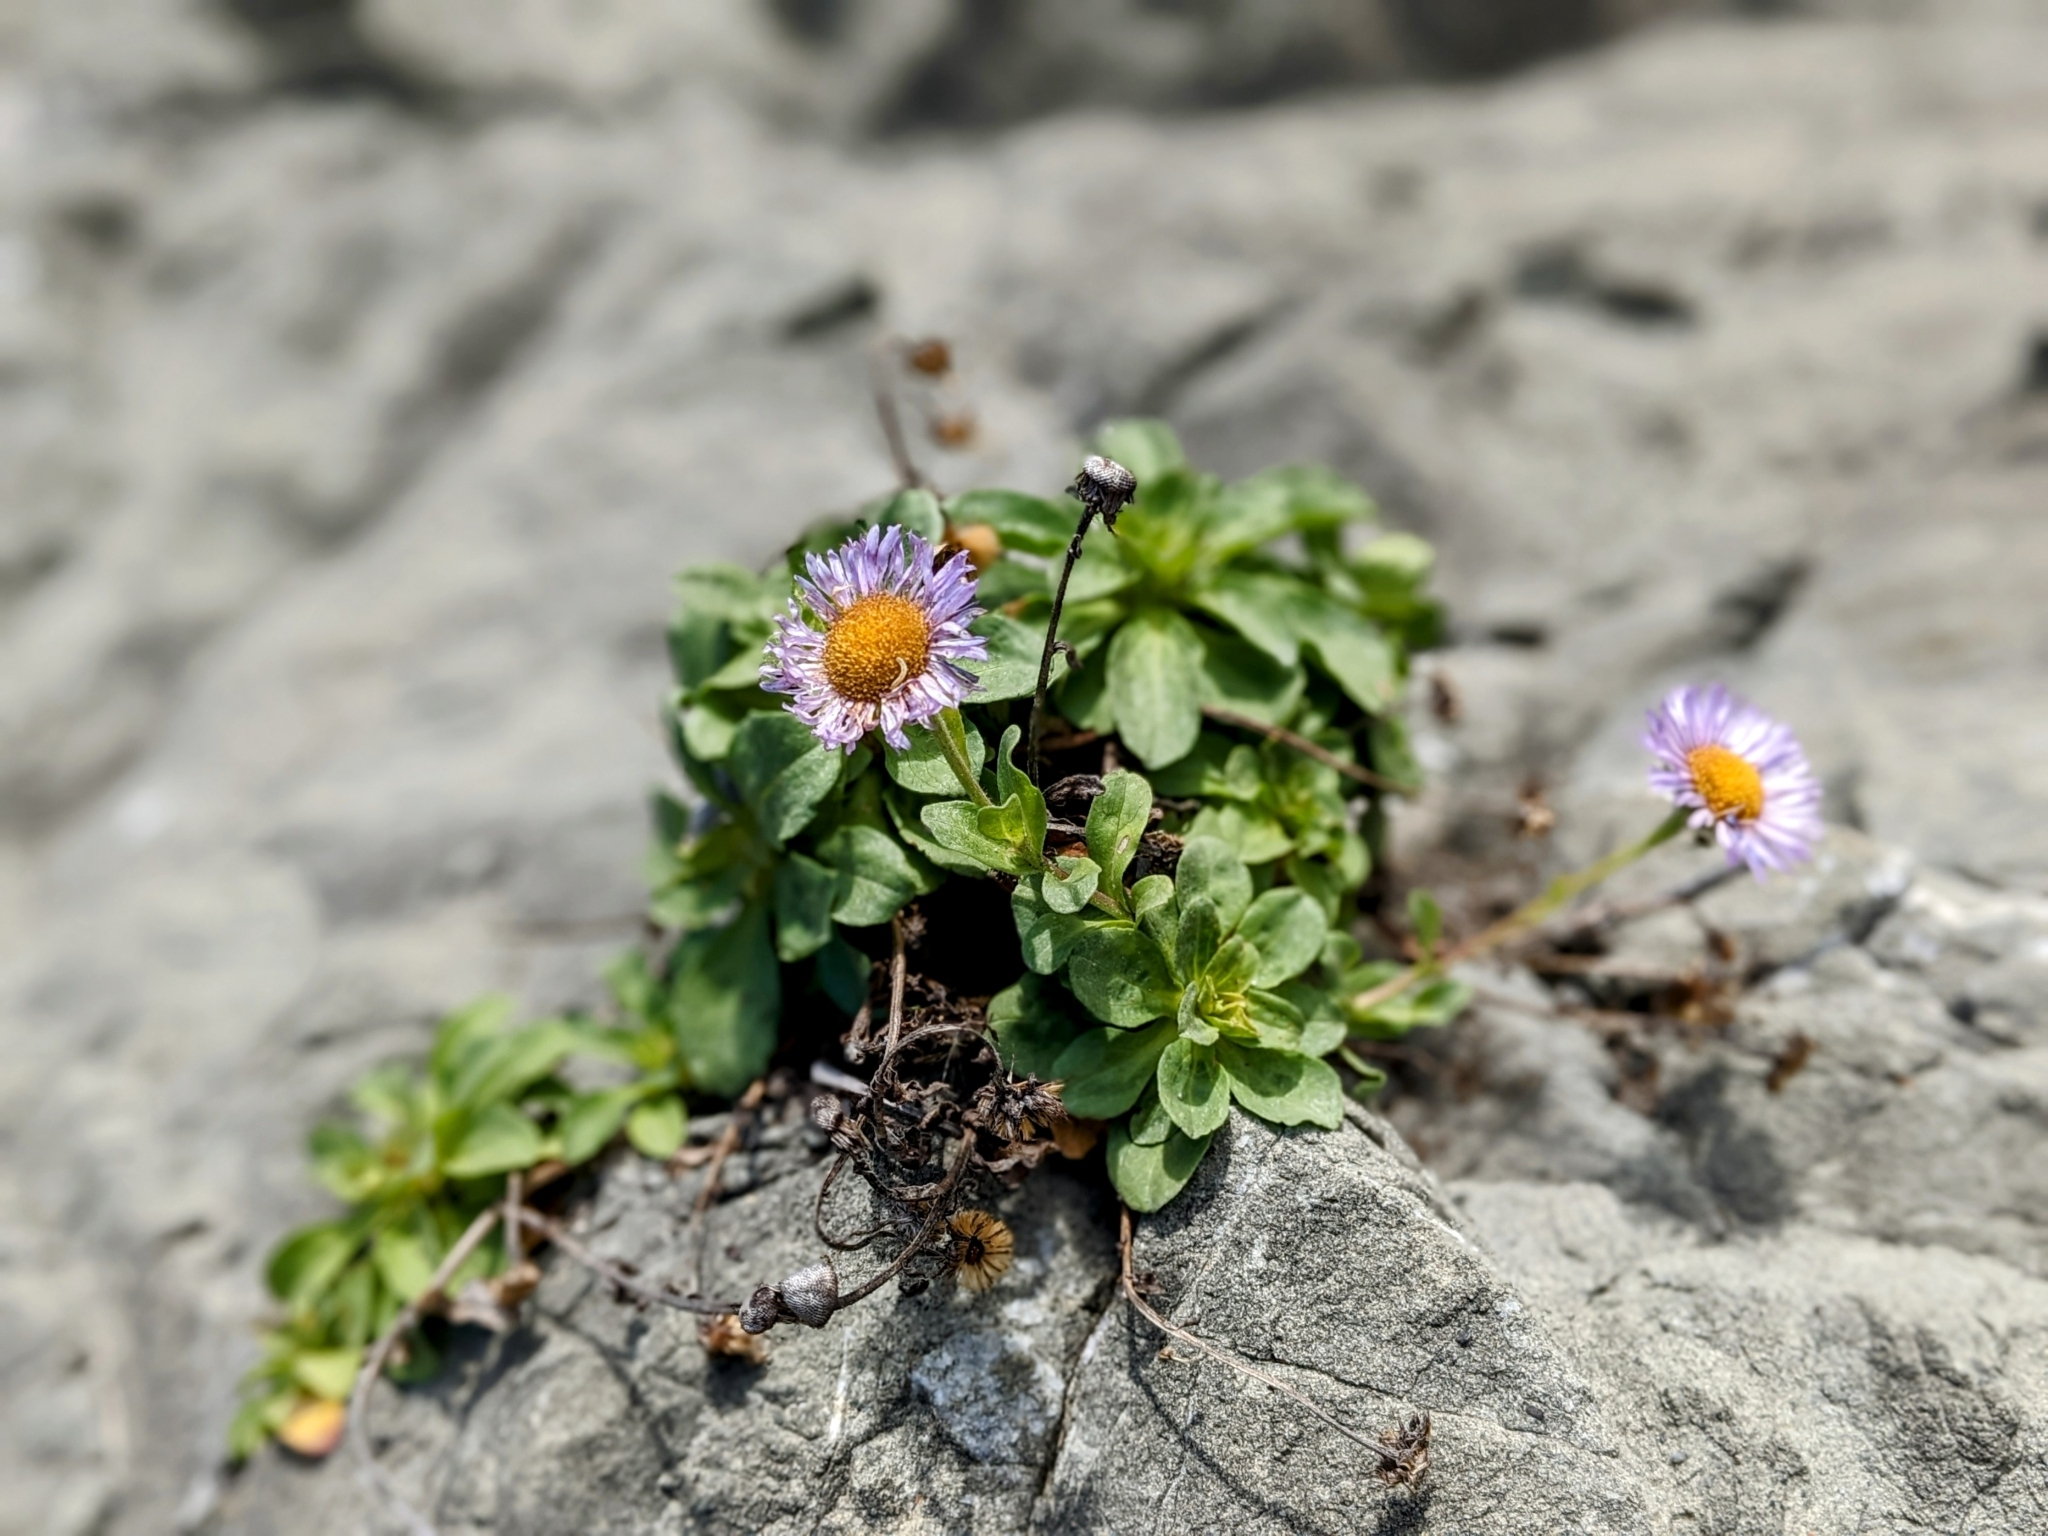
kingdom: Plantae
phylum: Tracheophyta
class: Magnoliopsida
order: Asterales
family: Asteraceae
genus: Erigeron
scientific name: Erigeron glaucus
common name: Seaside daisy
